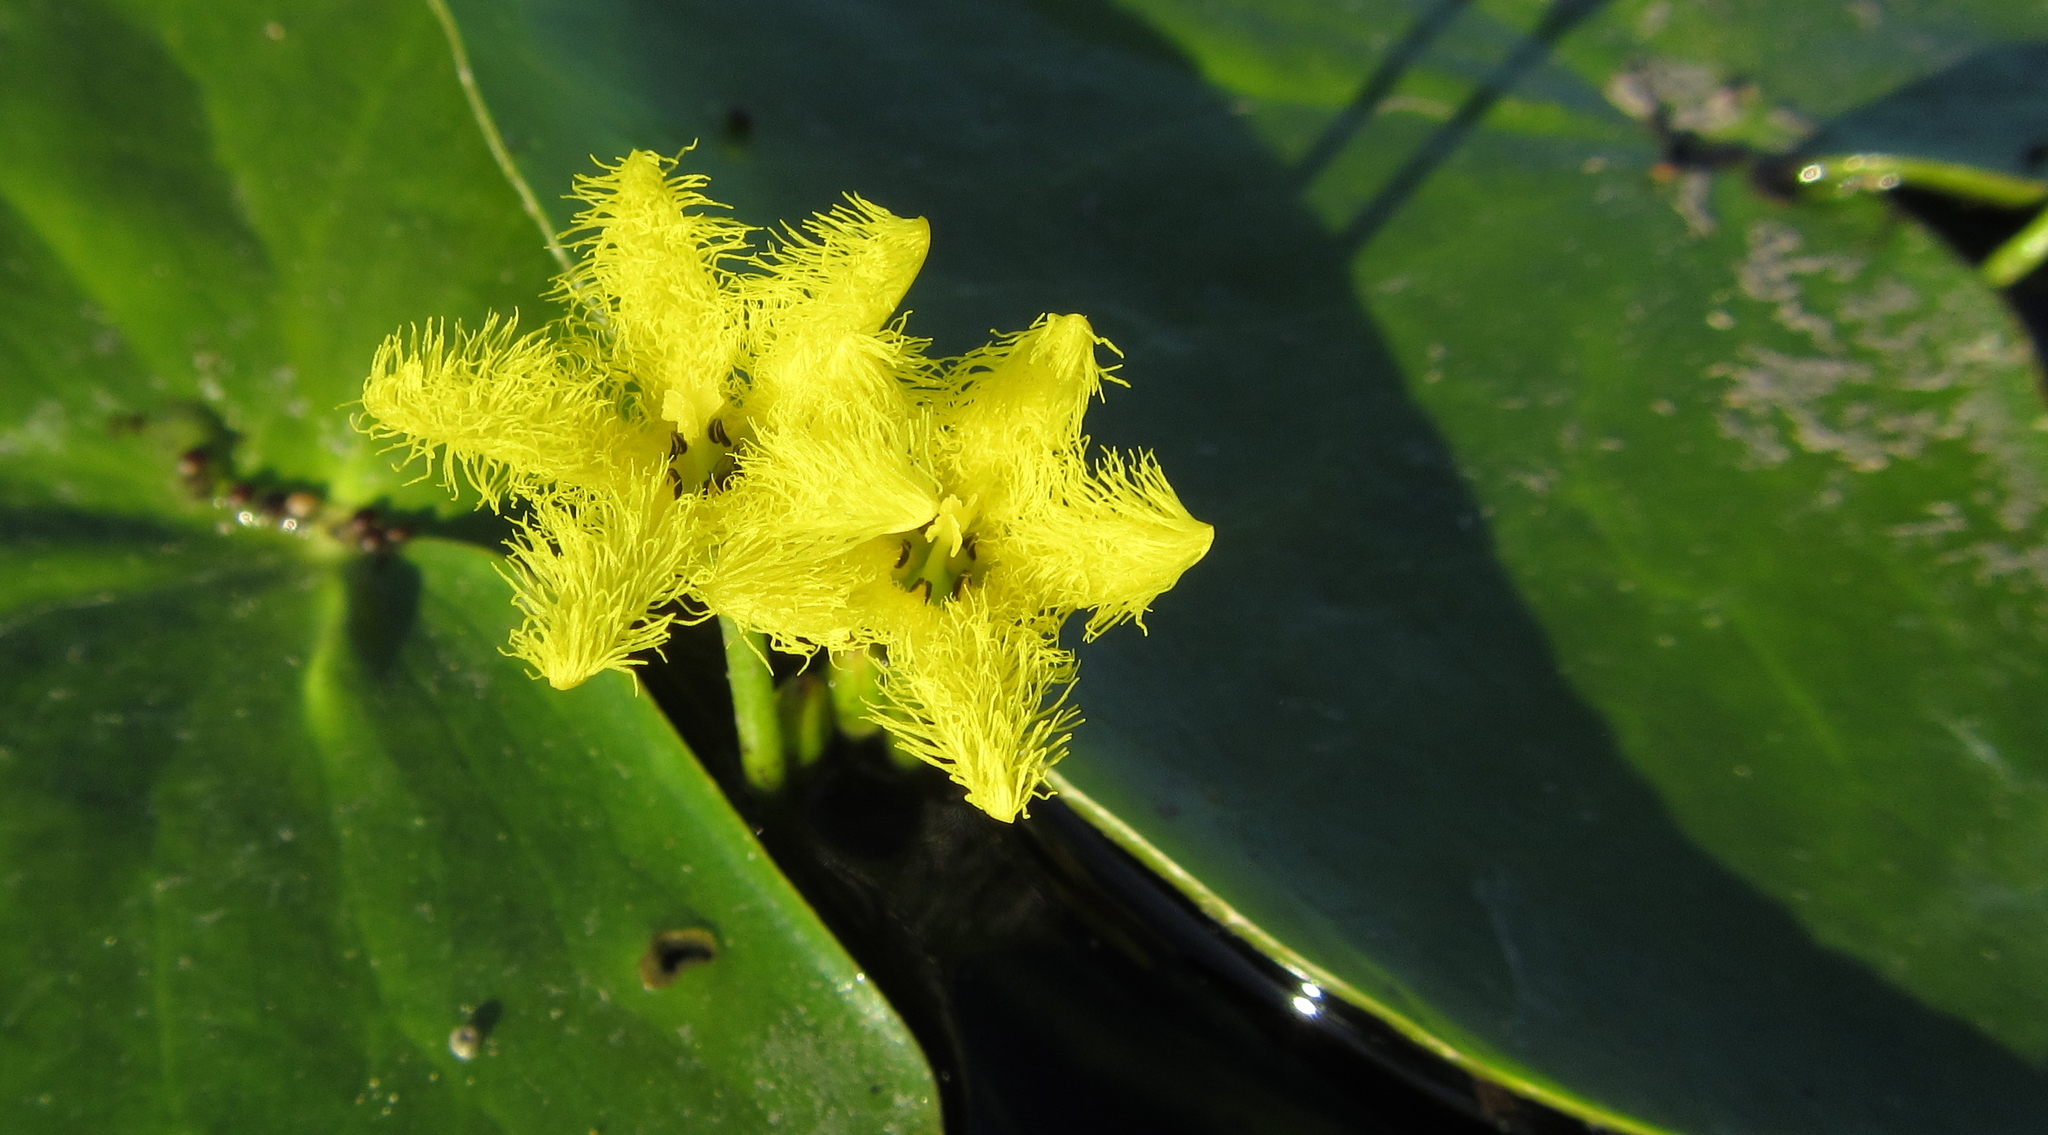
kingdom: Plantae
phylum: Tracheophyta
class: Magnoliopsida
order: Asterales
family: Menyanthaceae
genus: Nymphoides
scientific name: Nymphoides forbesiana
